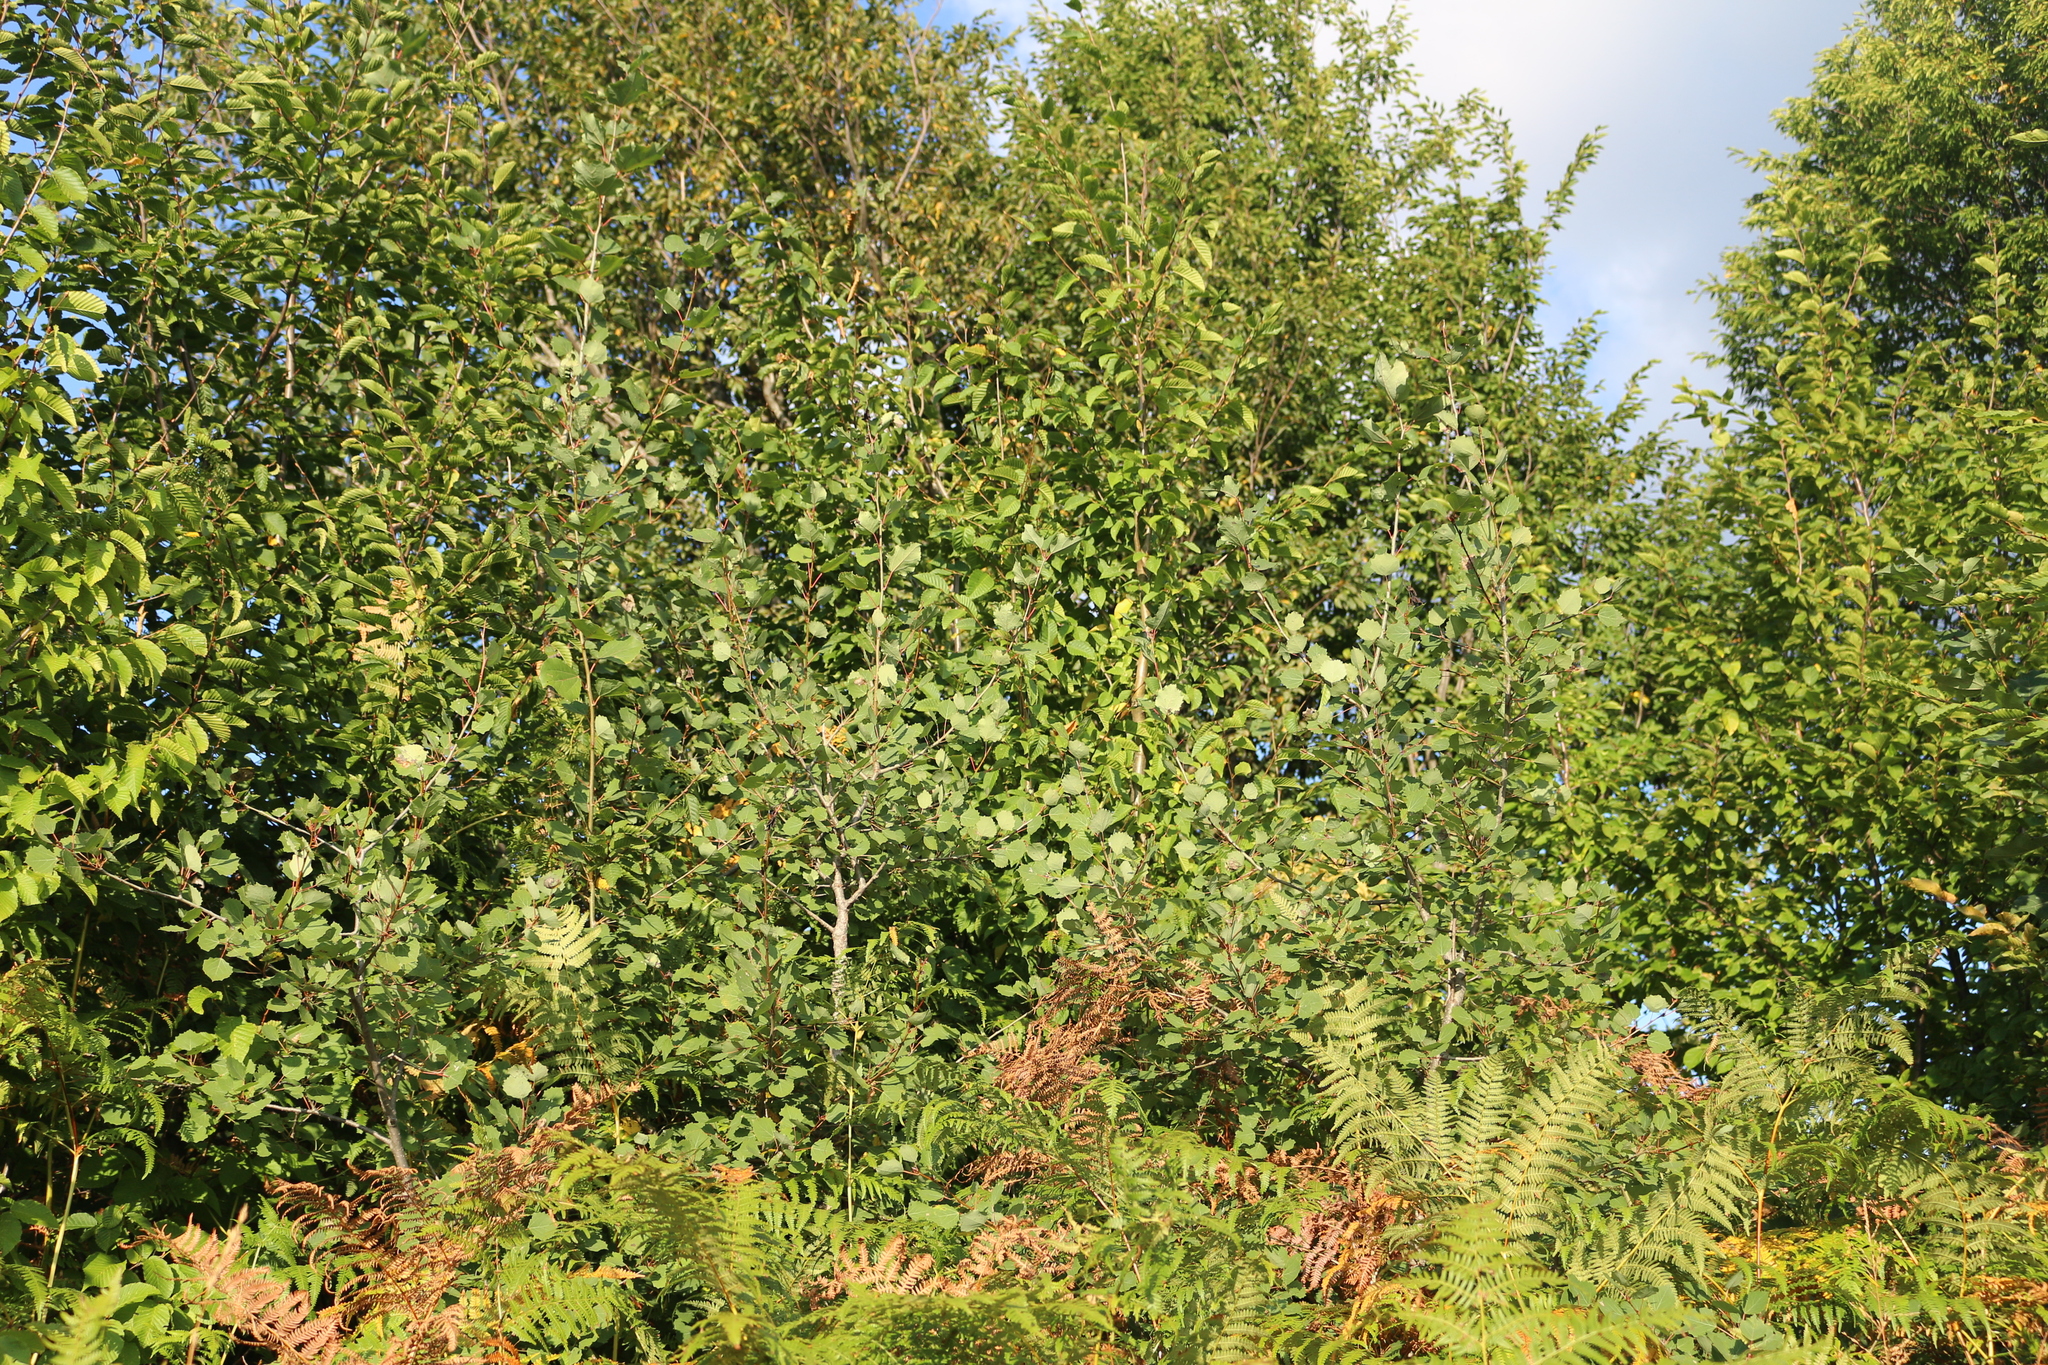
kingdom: Plantae
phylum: Tracheophyta
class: Magnoliopsida
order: Malpighiales
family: Salicaceae
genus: Populus
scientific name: Populus tremula
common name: European aspen
